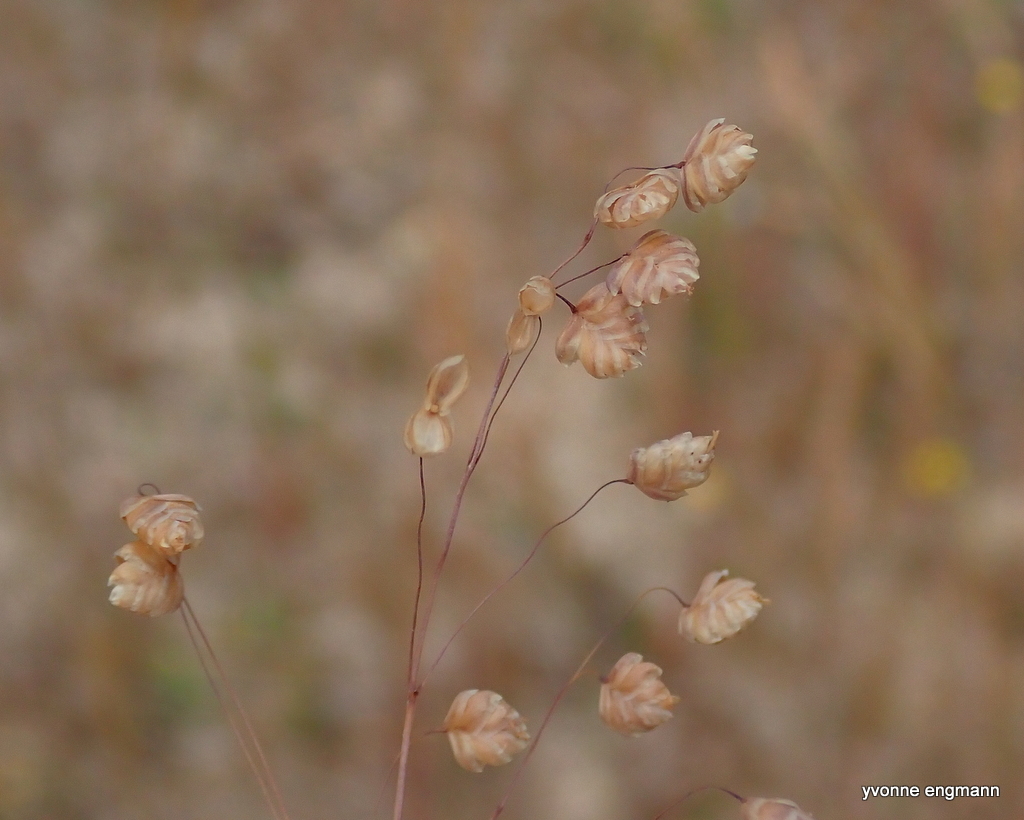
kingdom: Plantae
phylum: Tracheophyta
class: Liliopsida
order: Poales
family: Poaceae
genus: Briza
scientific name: Briza media
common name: Quaking grass
